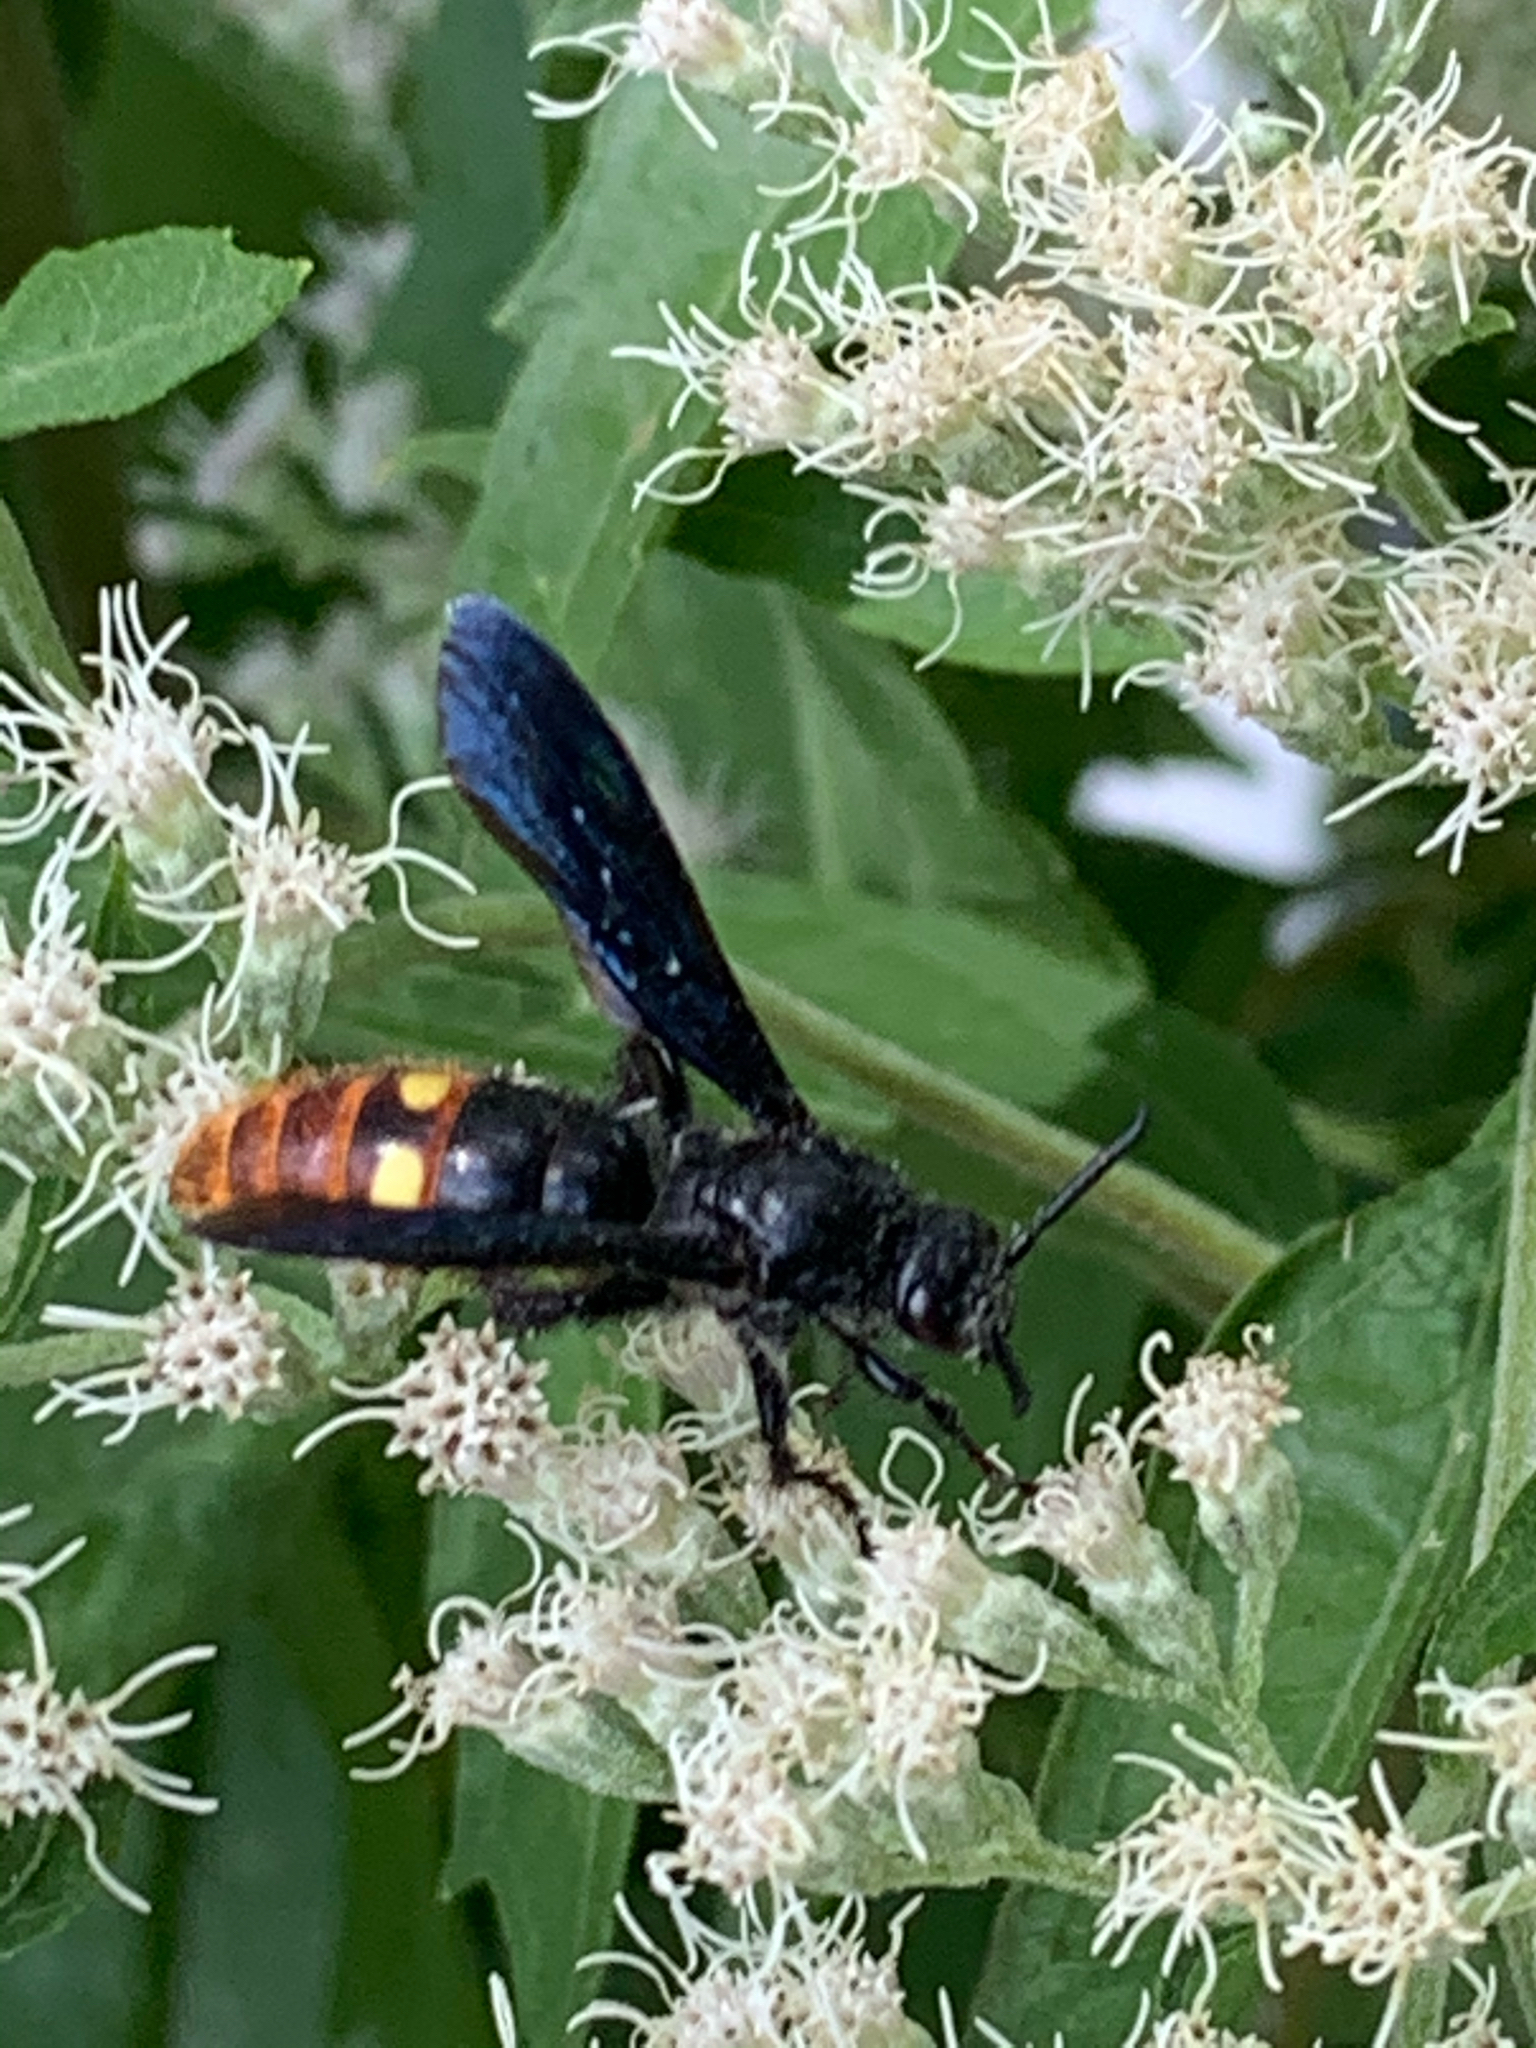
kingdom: Animalia
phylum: Arthropoda
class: Insecta
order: Hymenoptera
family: Scoliidae
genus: Scolia
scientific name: Scolia dubia
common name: Blue-winged scoliid wasp
